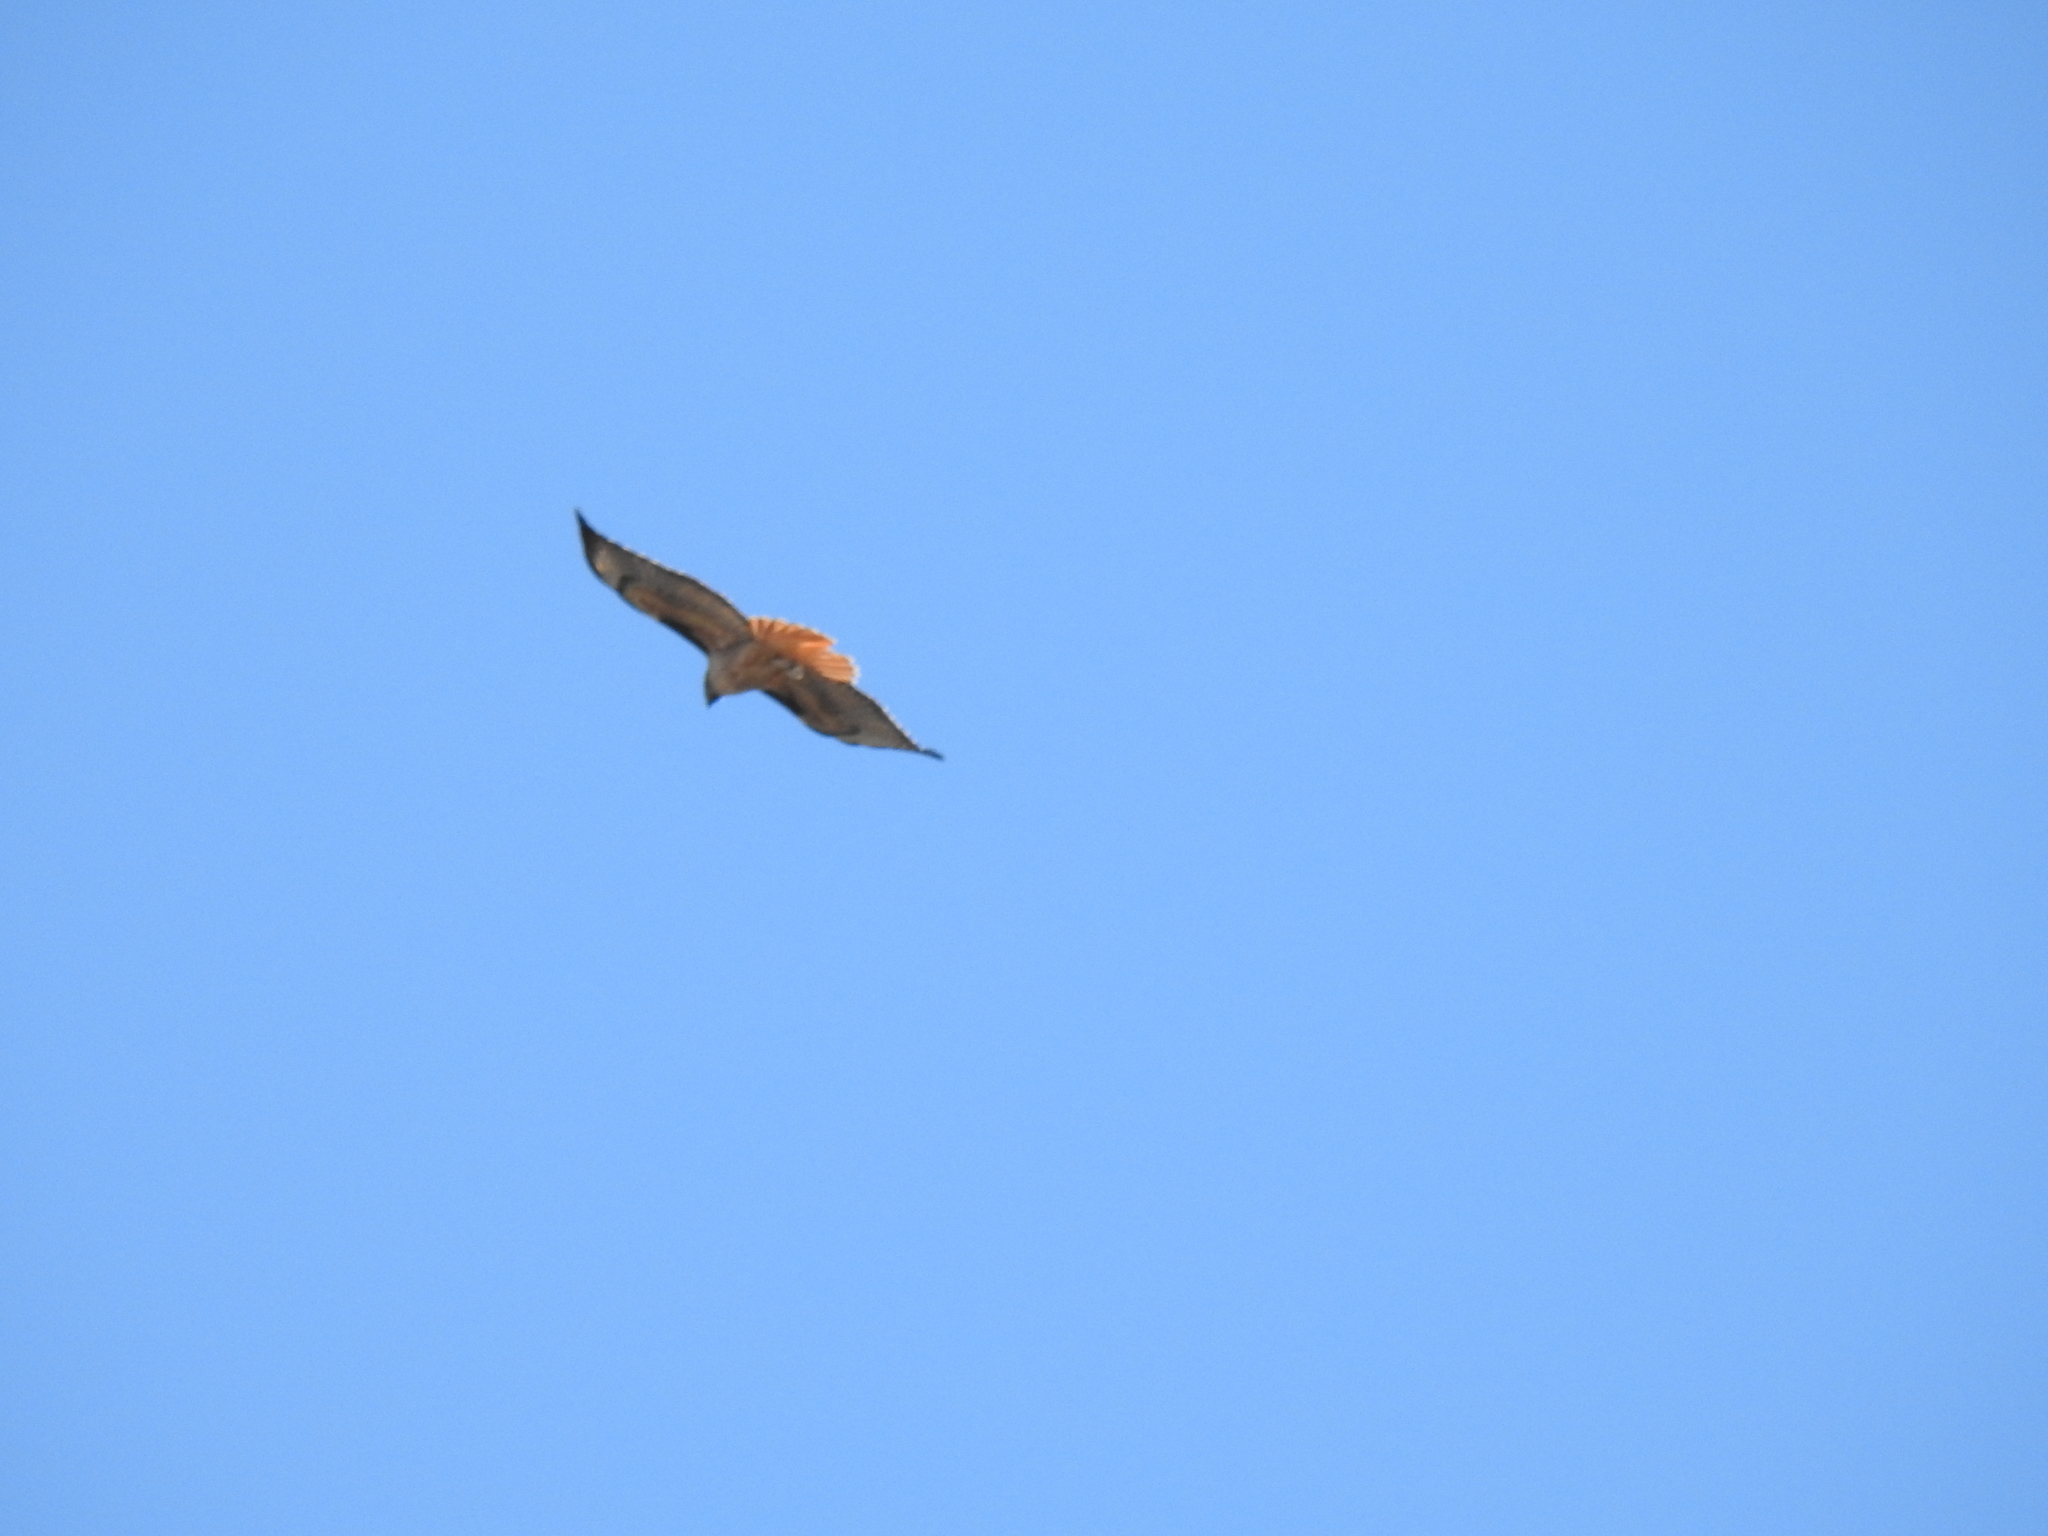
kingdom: Animalia
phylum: Chordata
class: Aves
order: Accipitriformes
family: Accipitridae
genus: Buteo
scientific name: Buteo jamaicensis
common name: Red-tailed hawk
